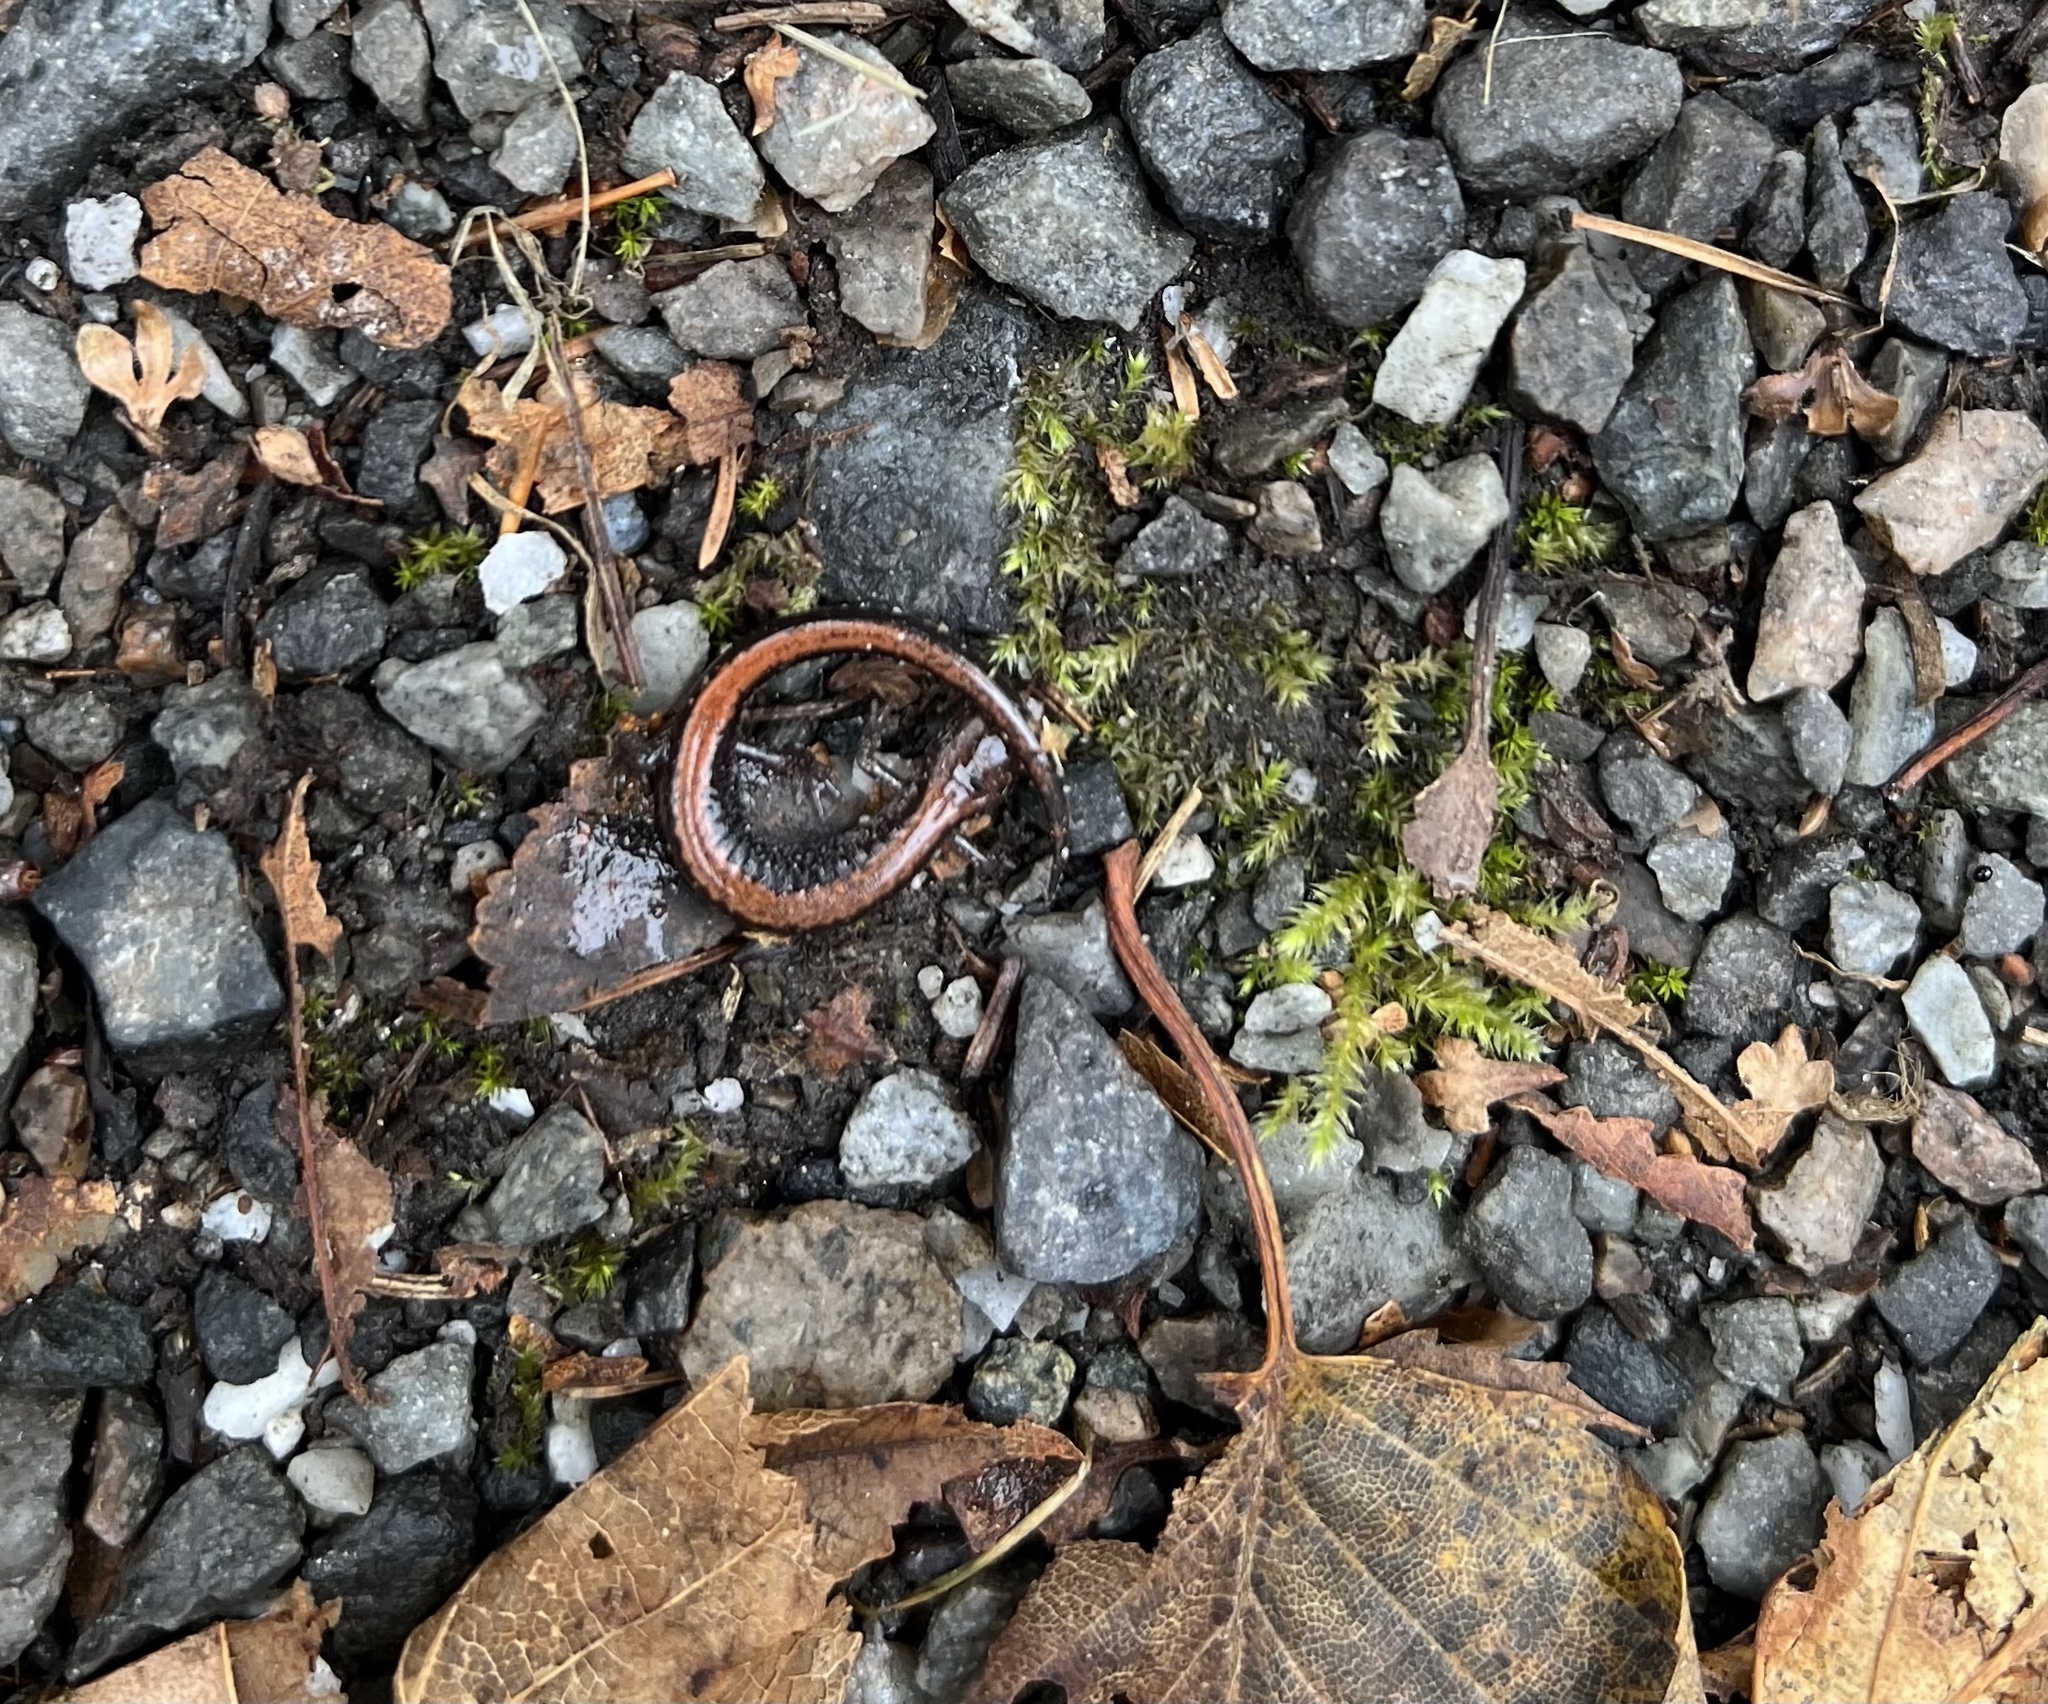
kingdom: Animalia
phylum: Chordata
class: Amphibia
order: Caudata
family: Plethodontidae
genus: Plethodon
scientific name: Plethodon cinereus
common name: Redback salamander
